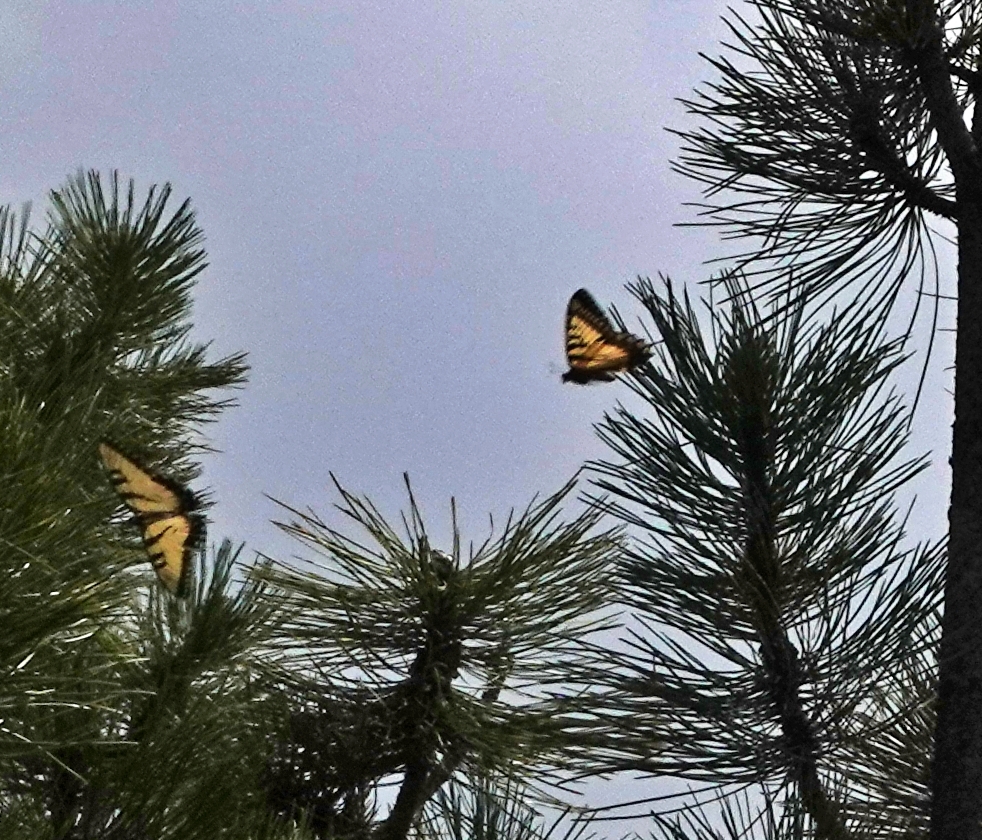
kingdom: Animalia
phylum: Arthropoda
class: Insecta
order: Lepidoptera
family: Papilionidae
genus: Papilio
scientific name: Papilio glaucus
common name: Tiger swallowtail
